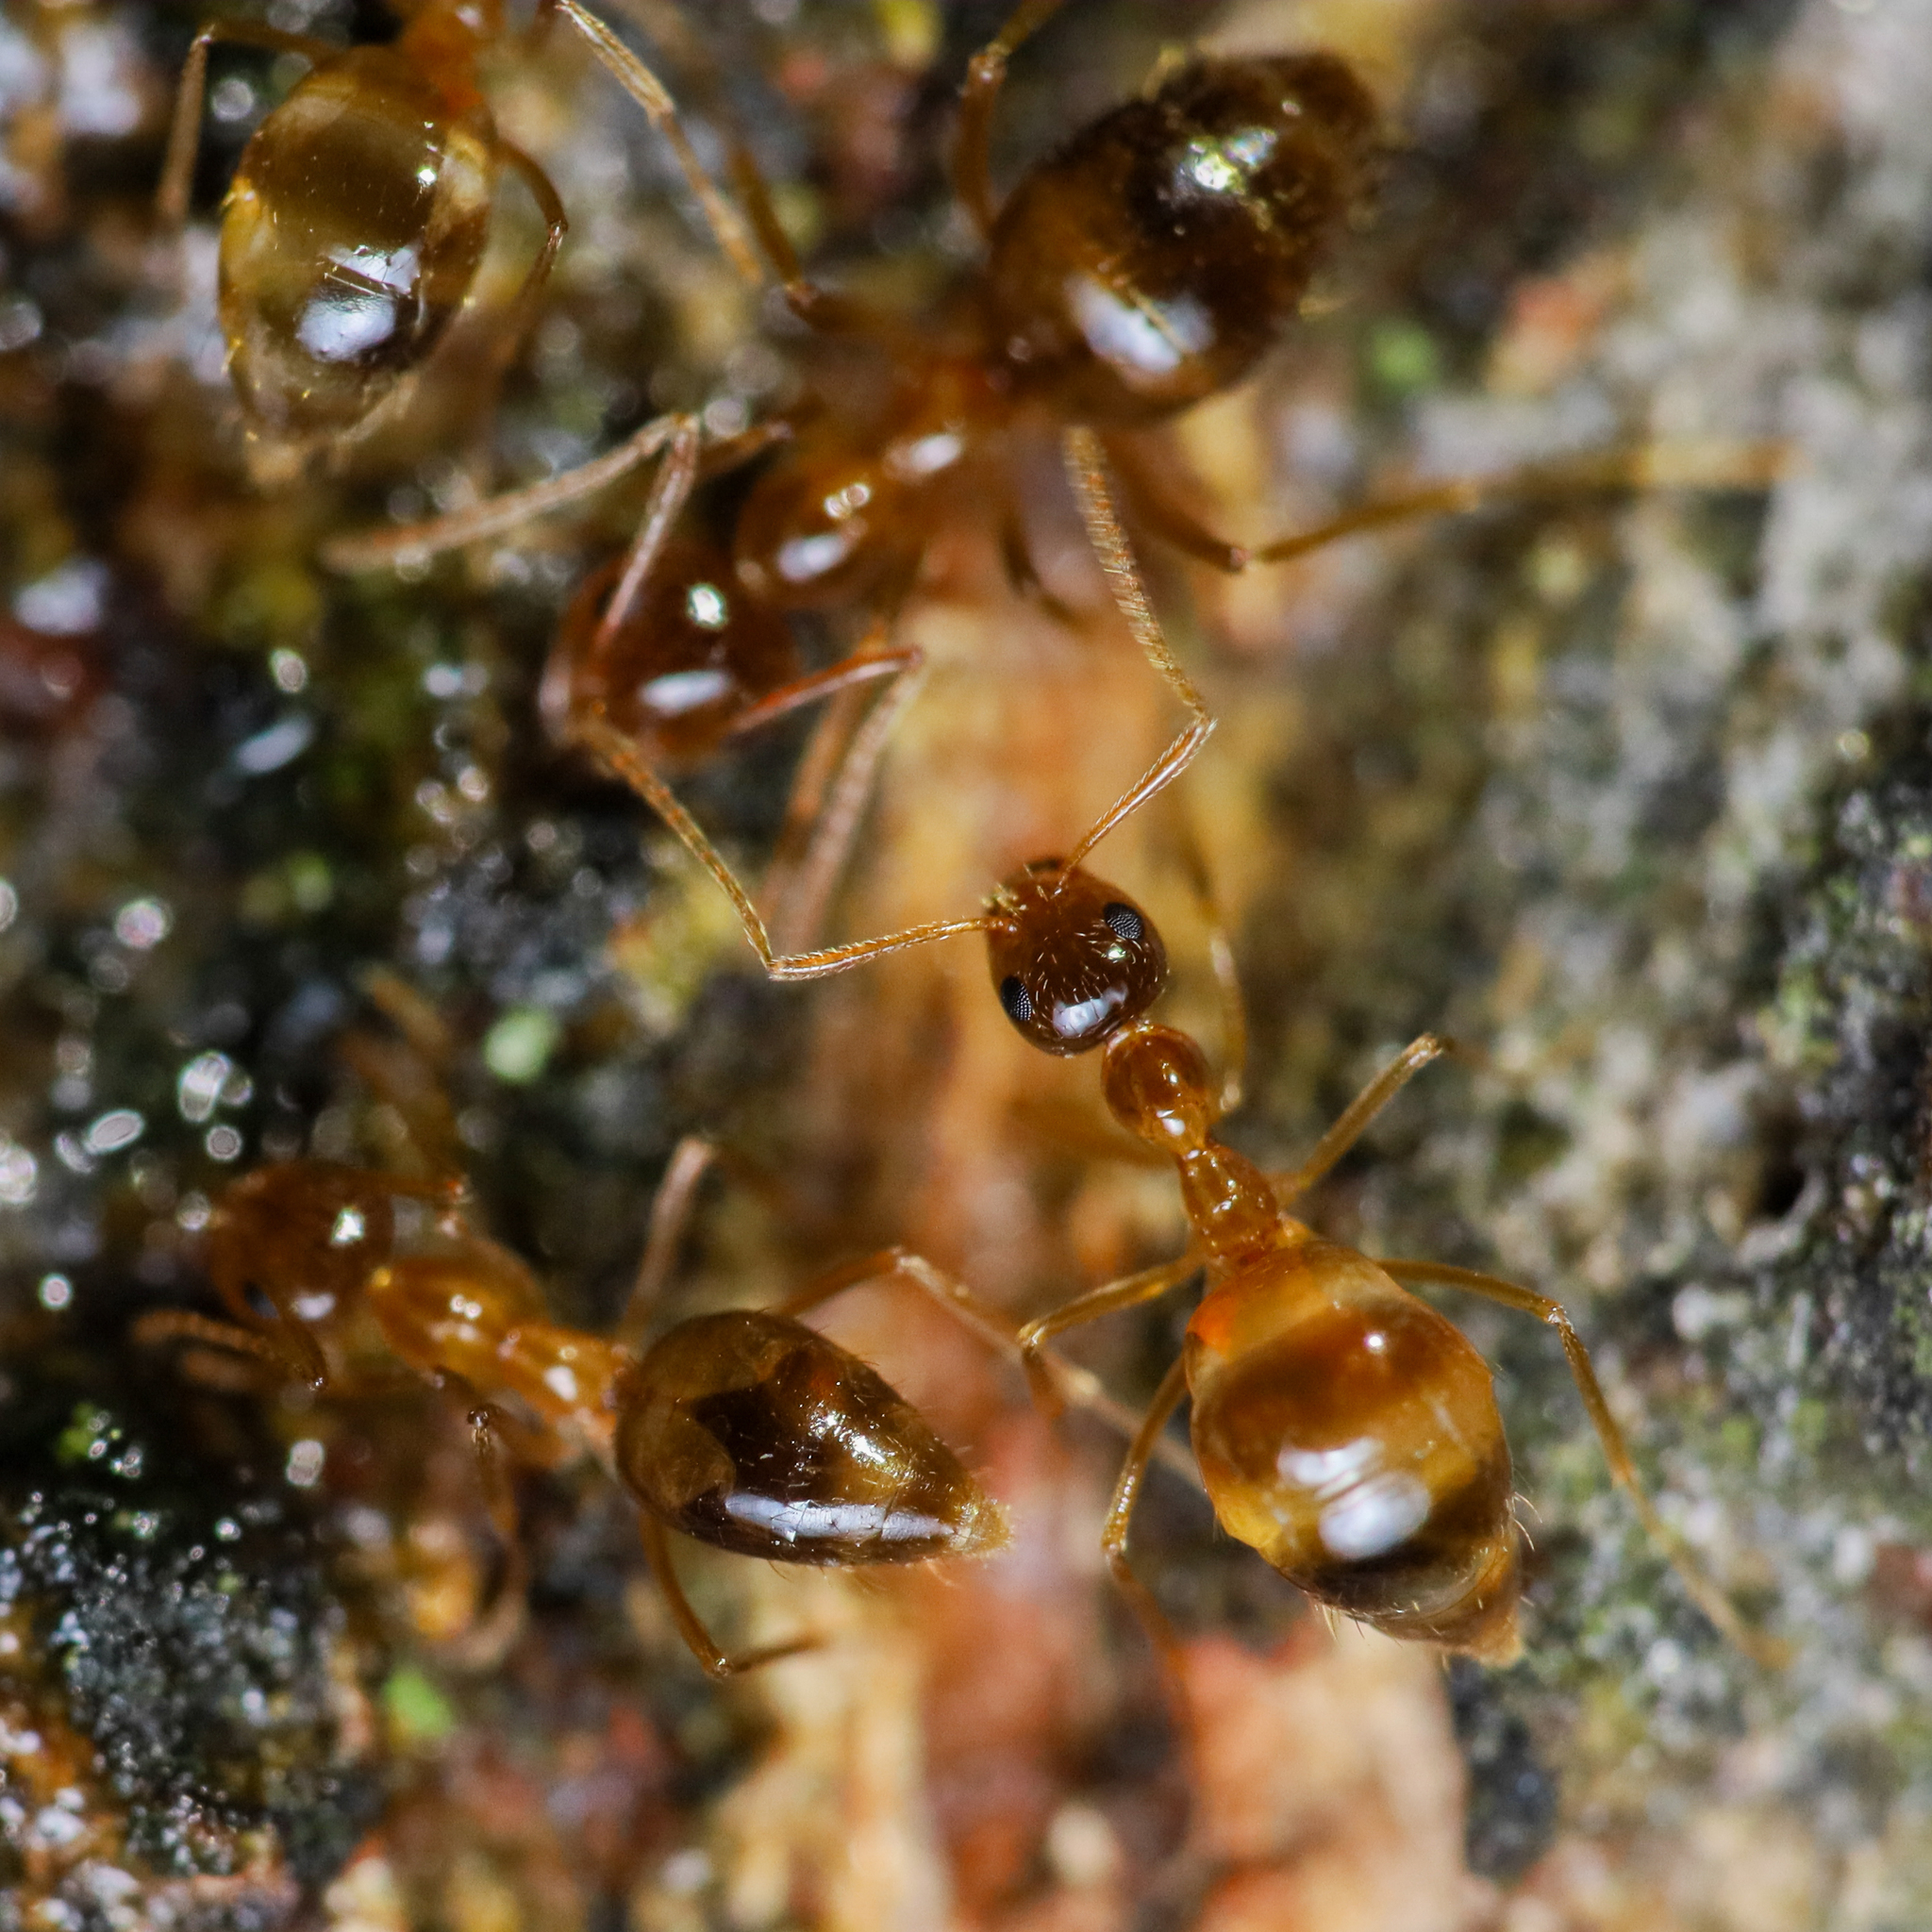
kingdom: Animalia
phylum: Arthropoda
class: Insecta
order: Hymenoptera
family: Formicidae
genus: Prenolepis
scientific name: Prenolepis imparis
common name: Small honey ant
